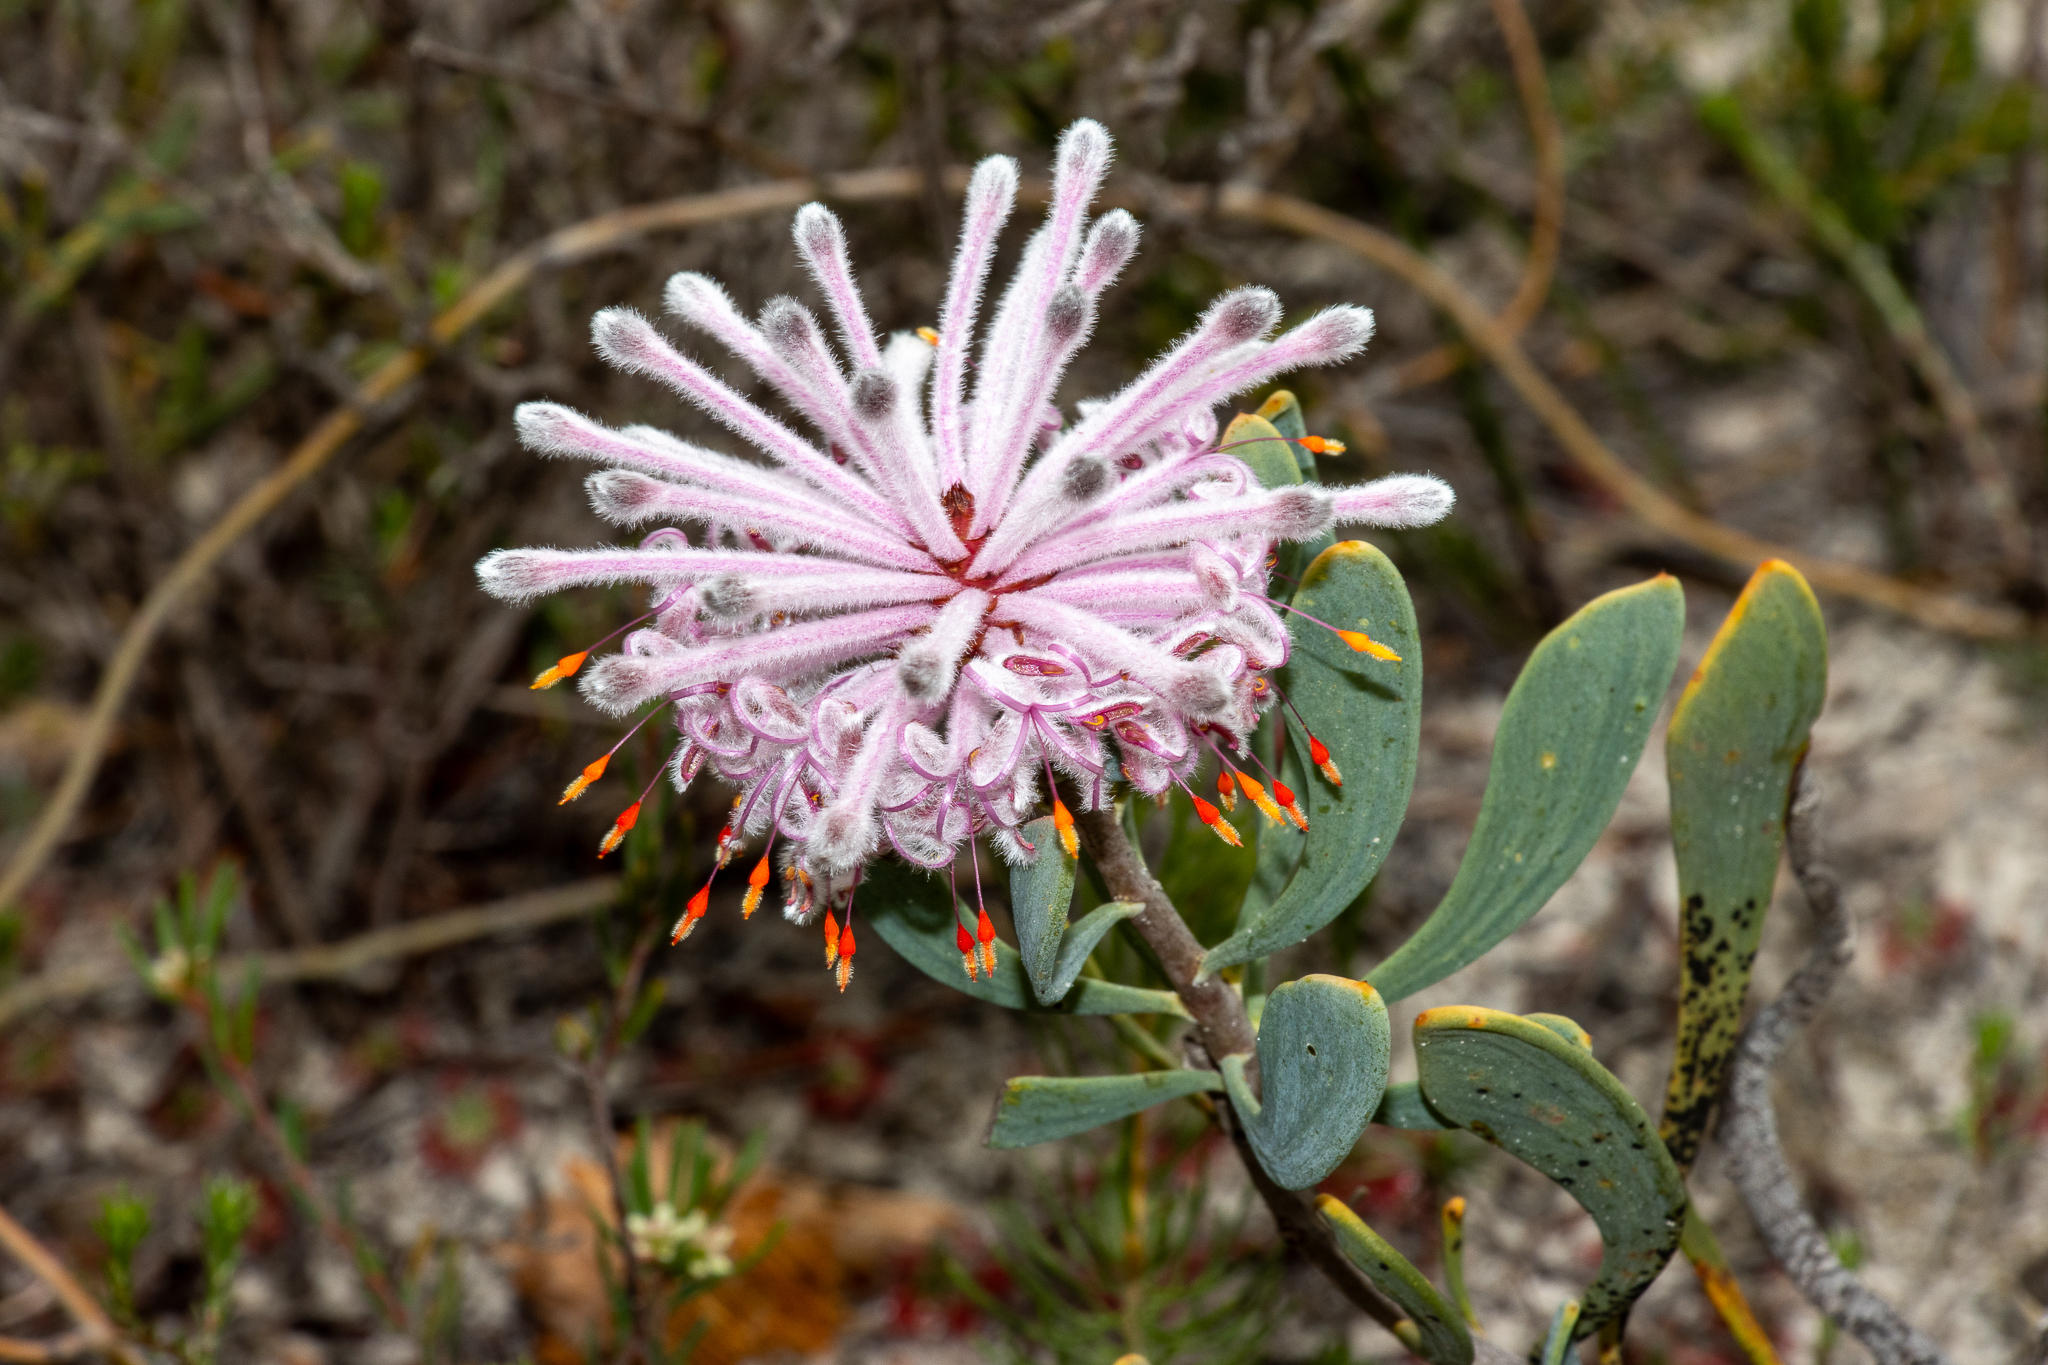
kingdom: Plantae
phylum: Tracheophyta
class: Magnoliopsida
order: Proteales
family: Proteaceae
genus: Petrophile
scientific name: Petrophile linearis
